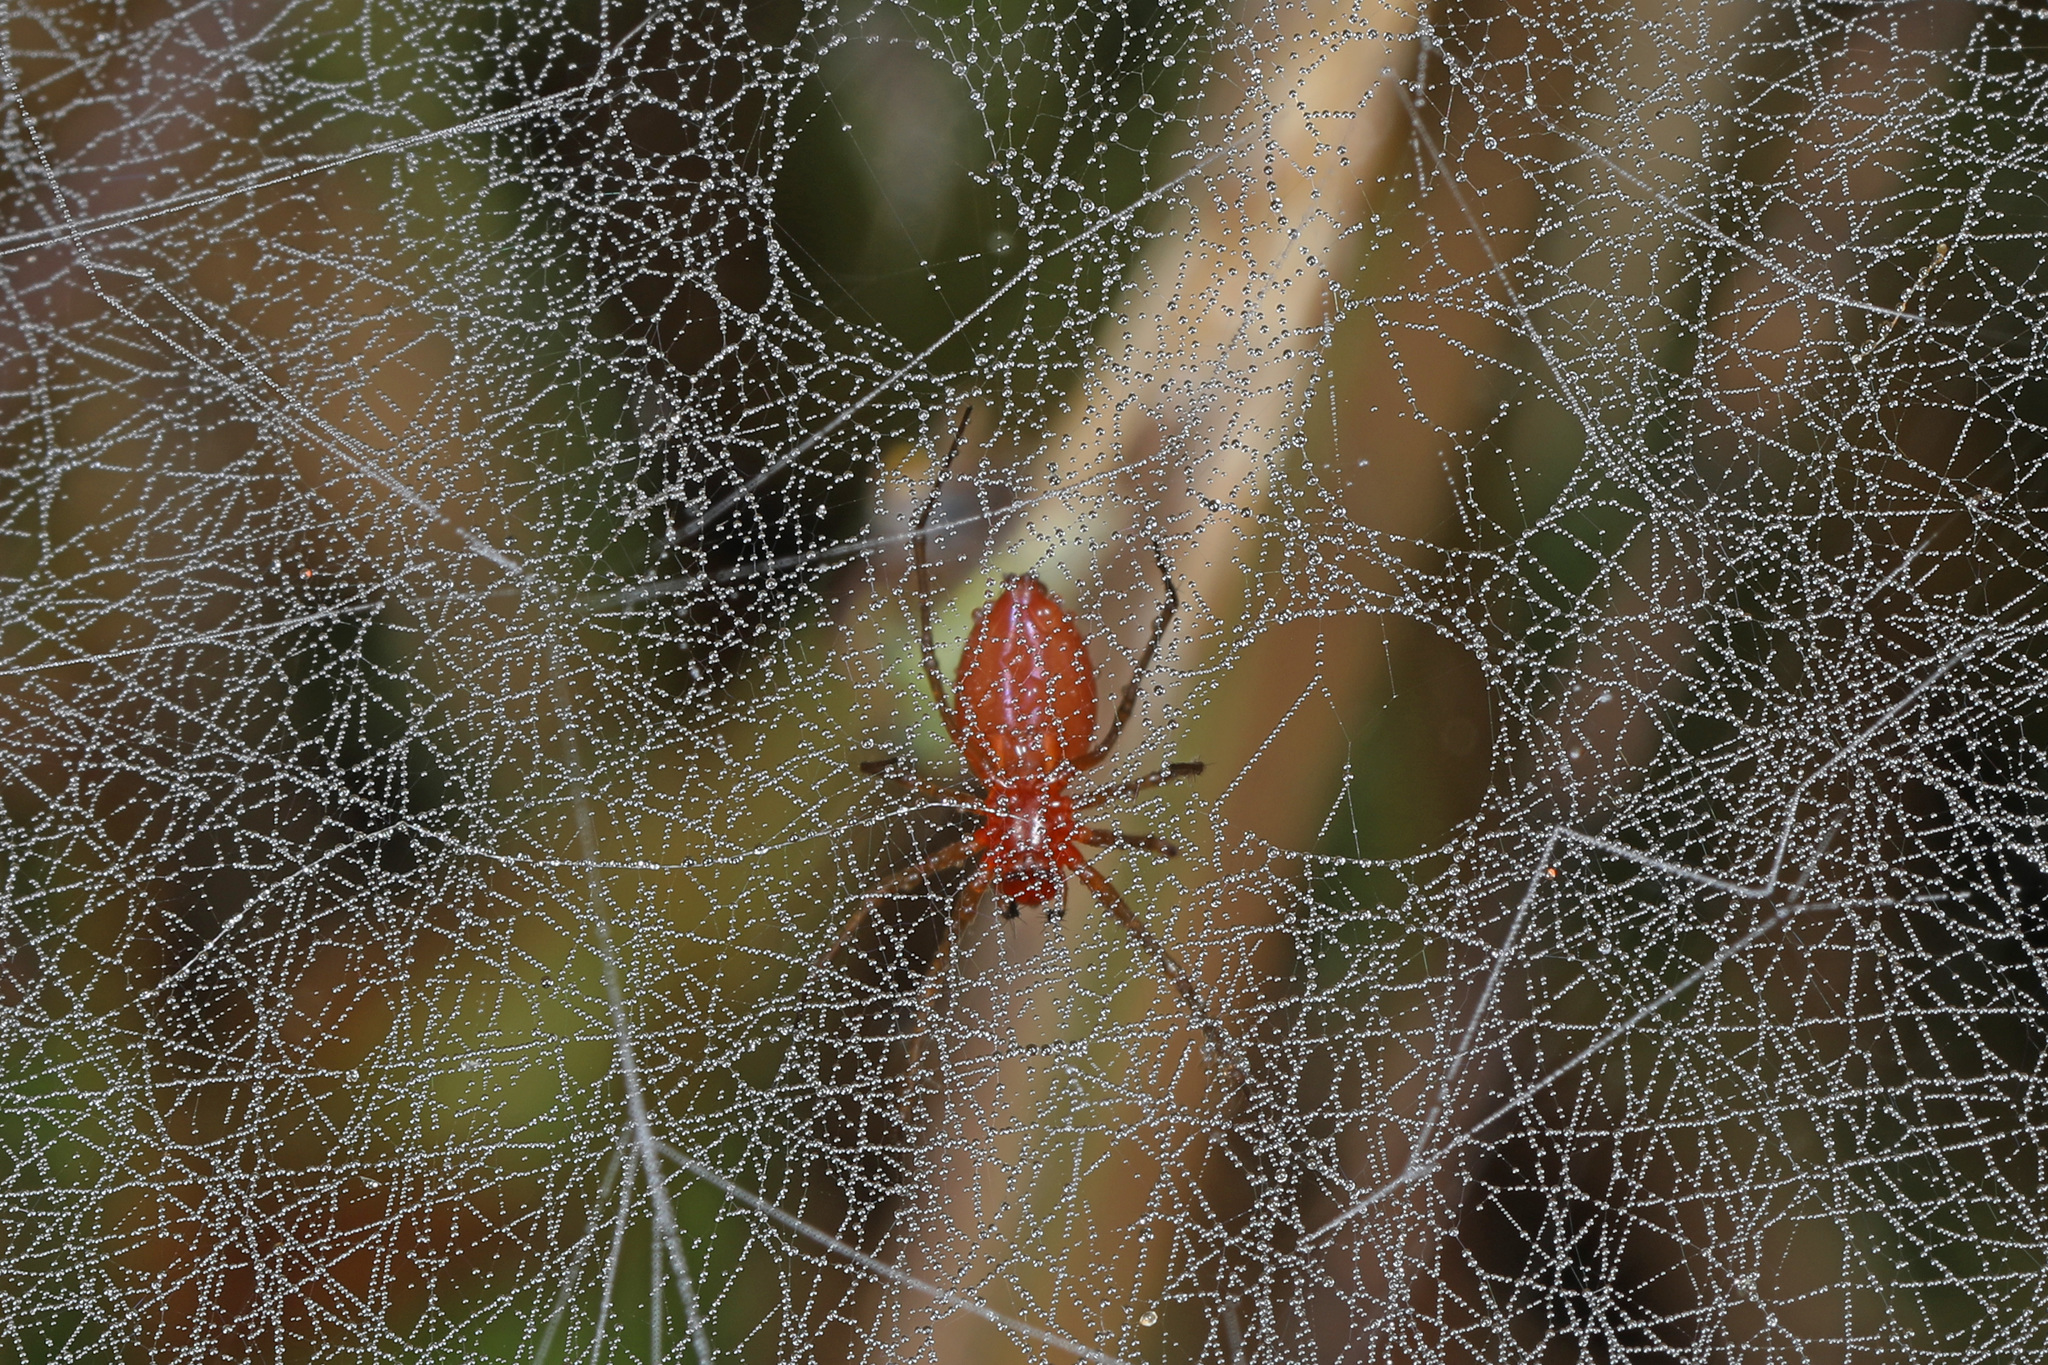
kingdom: Animalia
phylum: Arthropoda
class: Arachnida
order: Araneae
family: Linyphiidae
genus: Florinda
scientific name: Florinda coccinea
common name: Black-tailed red sheetweaver
